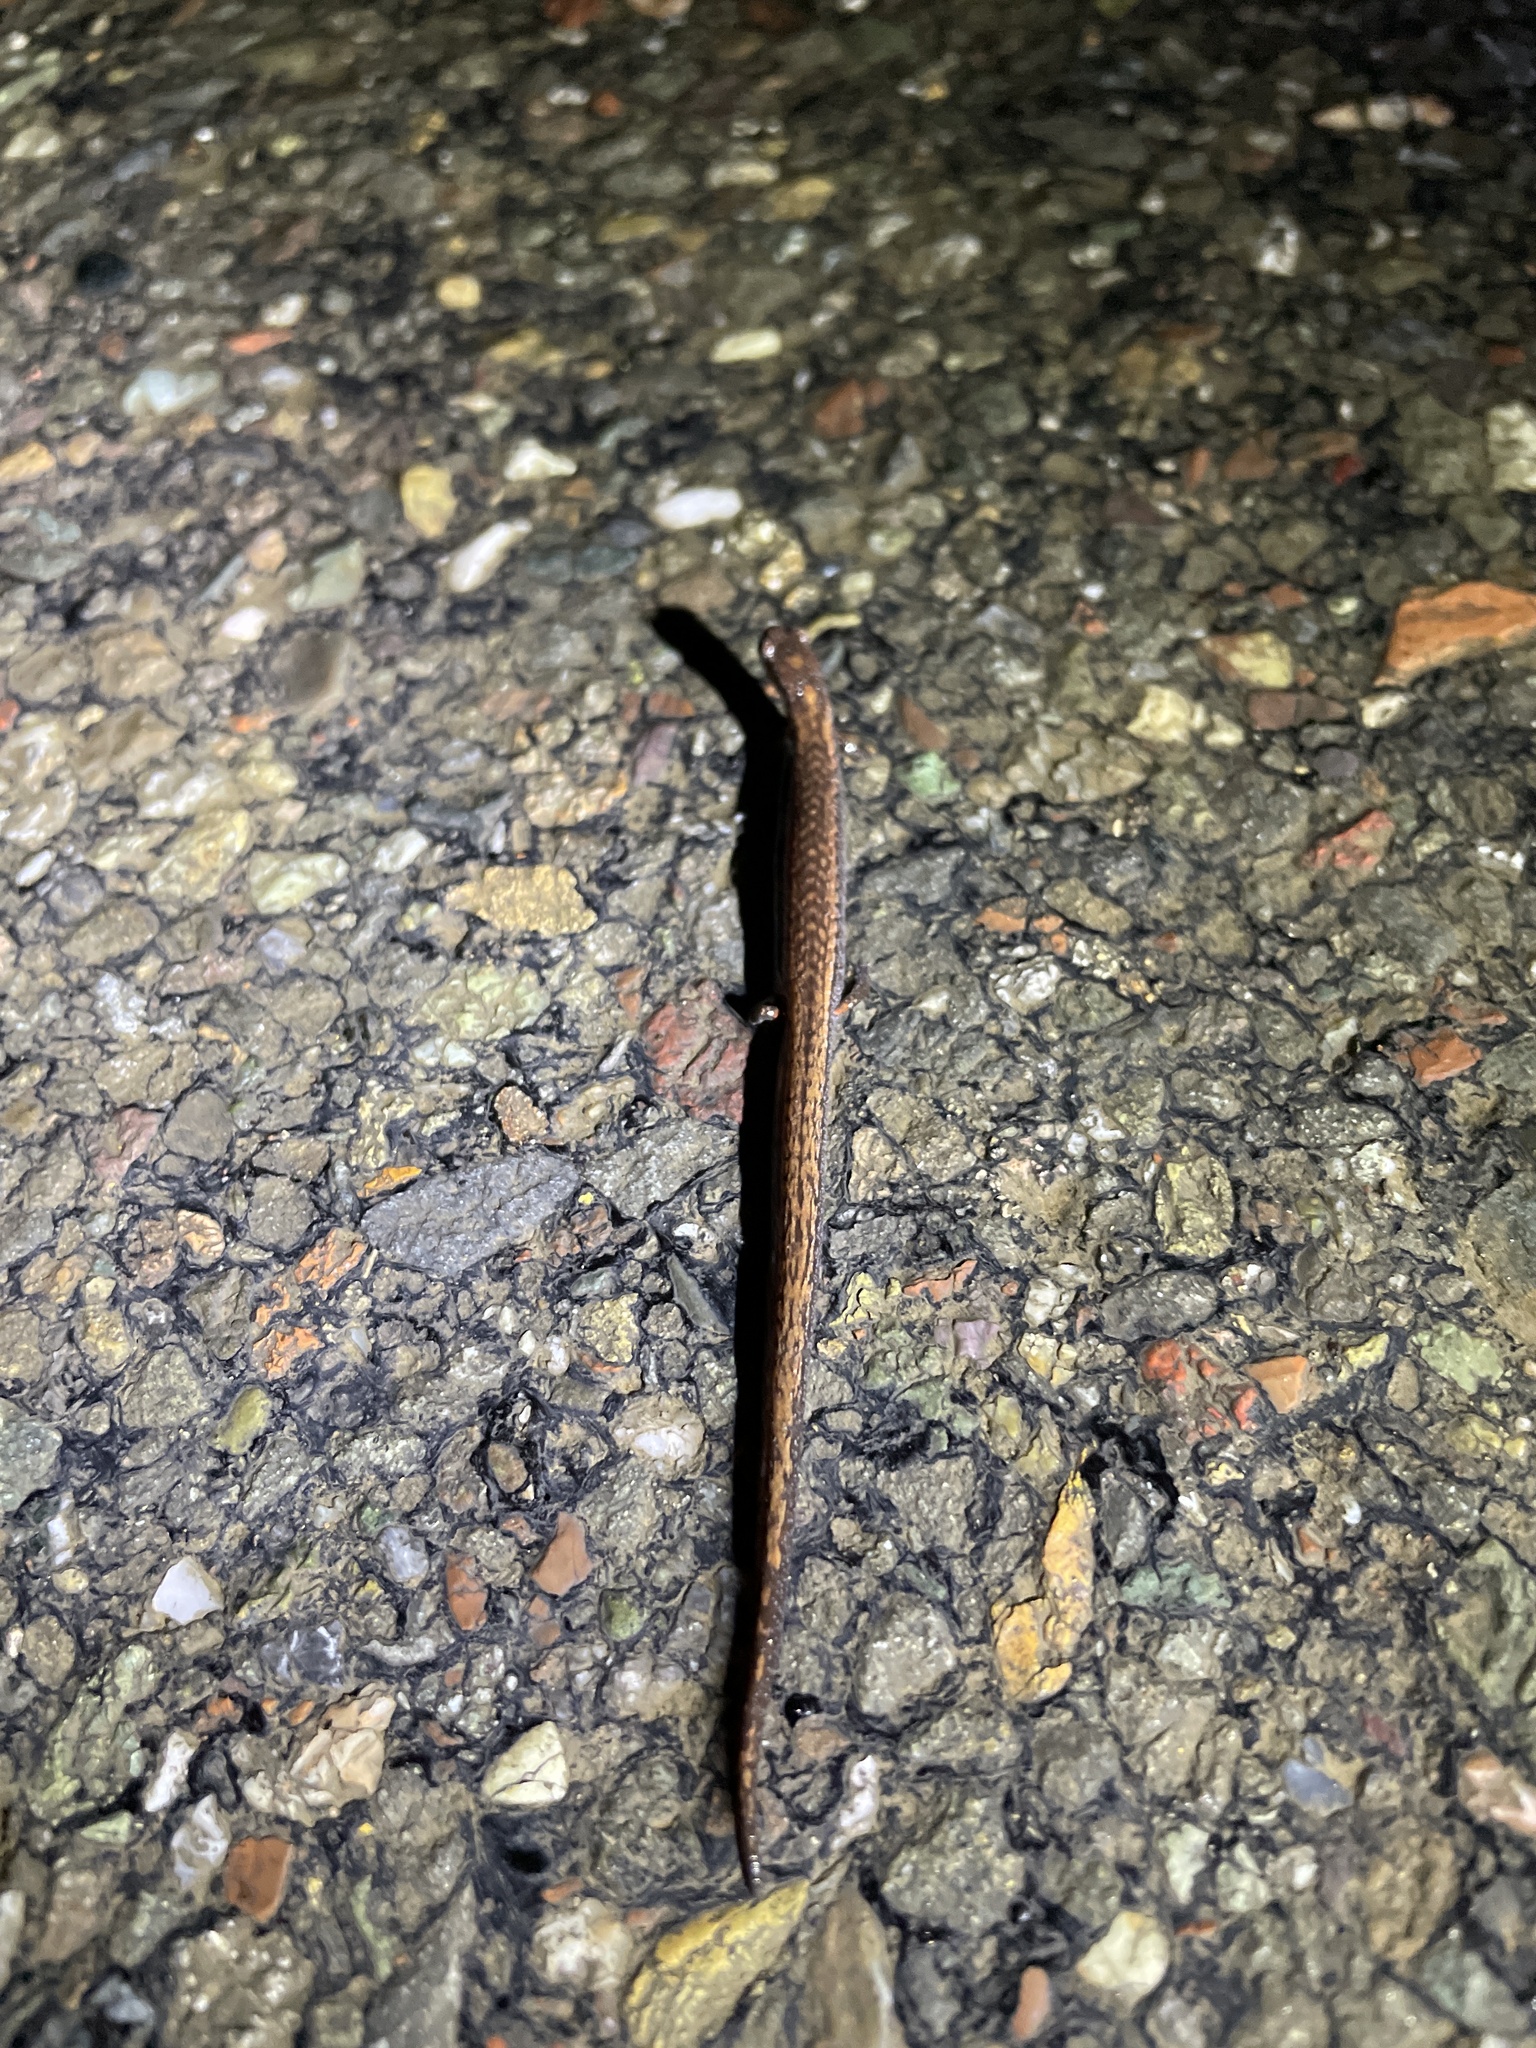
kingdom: Animalia
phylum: Chordata
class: Amphibia
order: Caudata
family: Plethodontidae
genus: Batrachoseps
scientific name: Batrachoseps attenuatus
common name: California slender salamander
